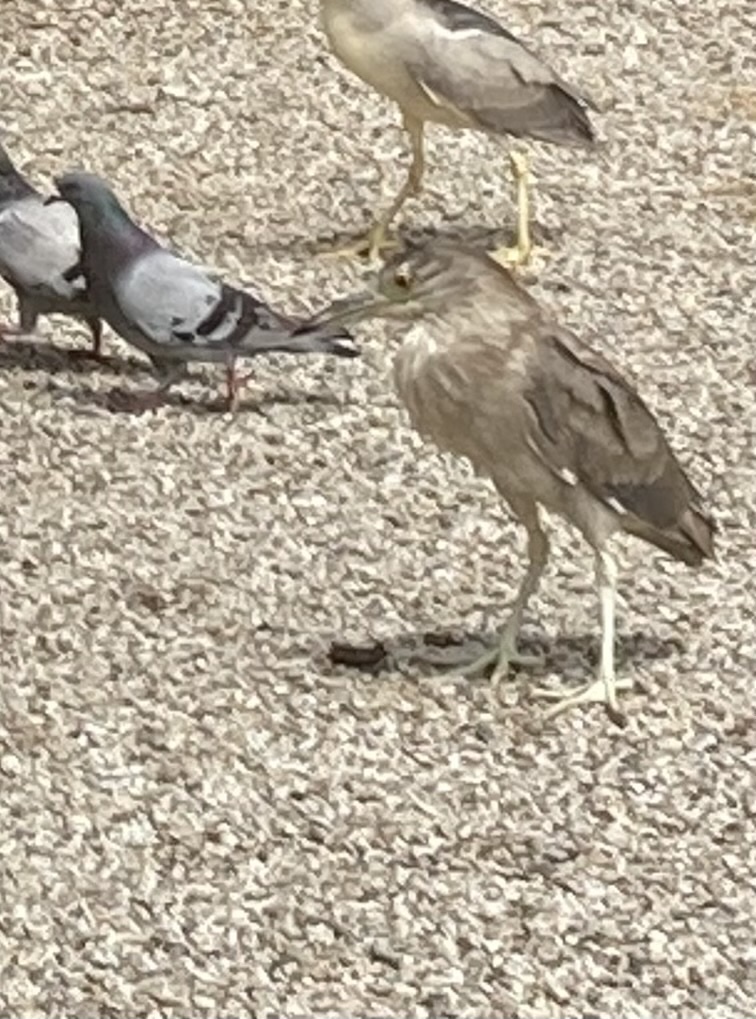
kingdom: Animalia
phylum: Chordata
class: Aves
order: Pelecaniformes
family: Ardeidae
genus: Nycticorax
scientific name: Nycticorax nycticorax
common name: Black-crowned night heron
